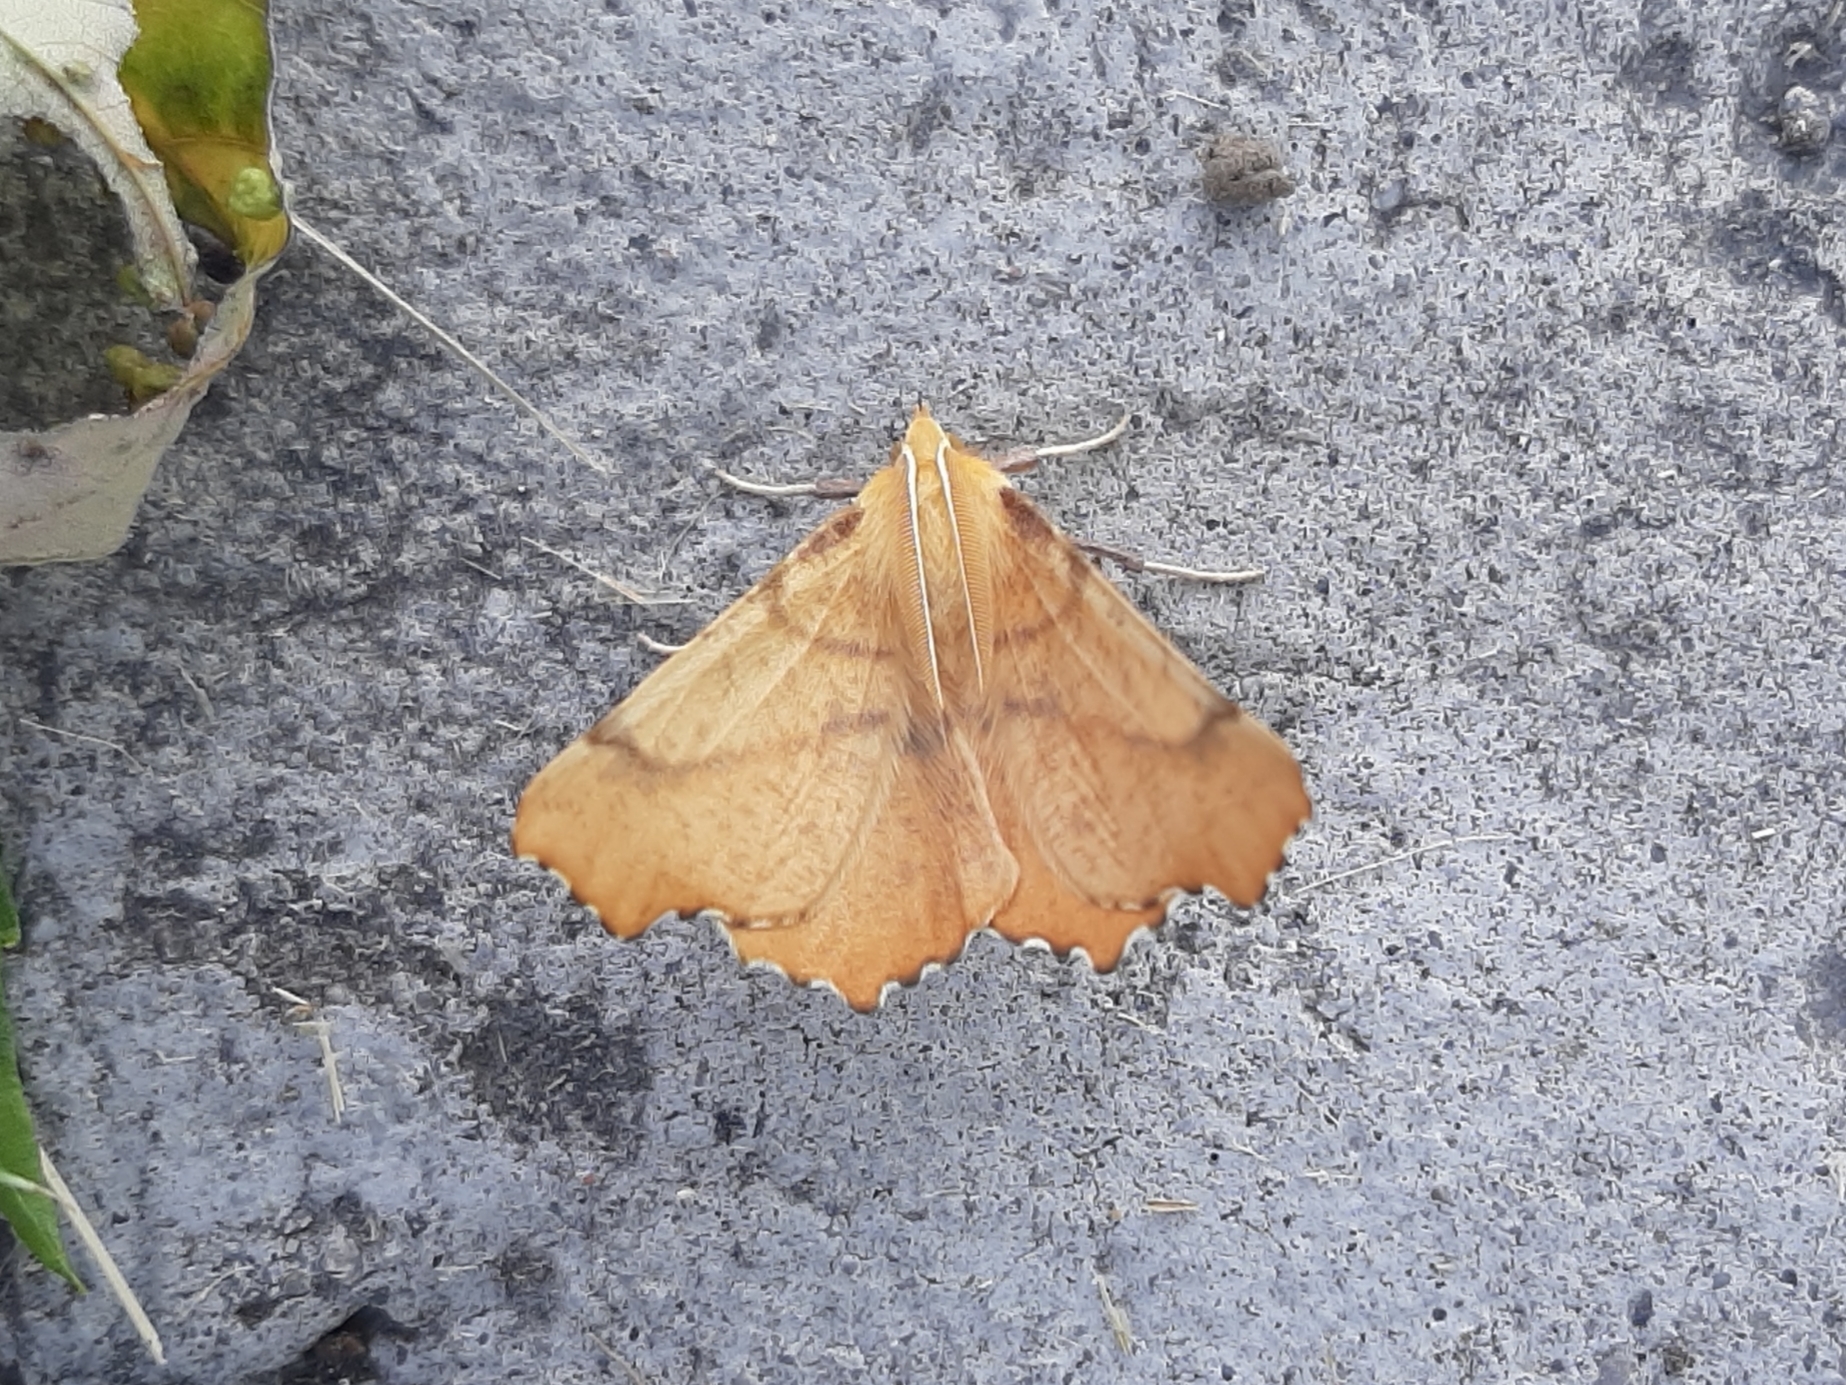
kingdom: Animalia
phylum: Arthropoda
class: Insecta
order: Lepidoptera
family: Geometridae
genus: Ennomos
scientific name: Ennomos magnaria
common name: Maple spanworm
